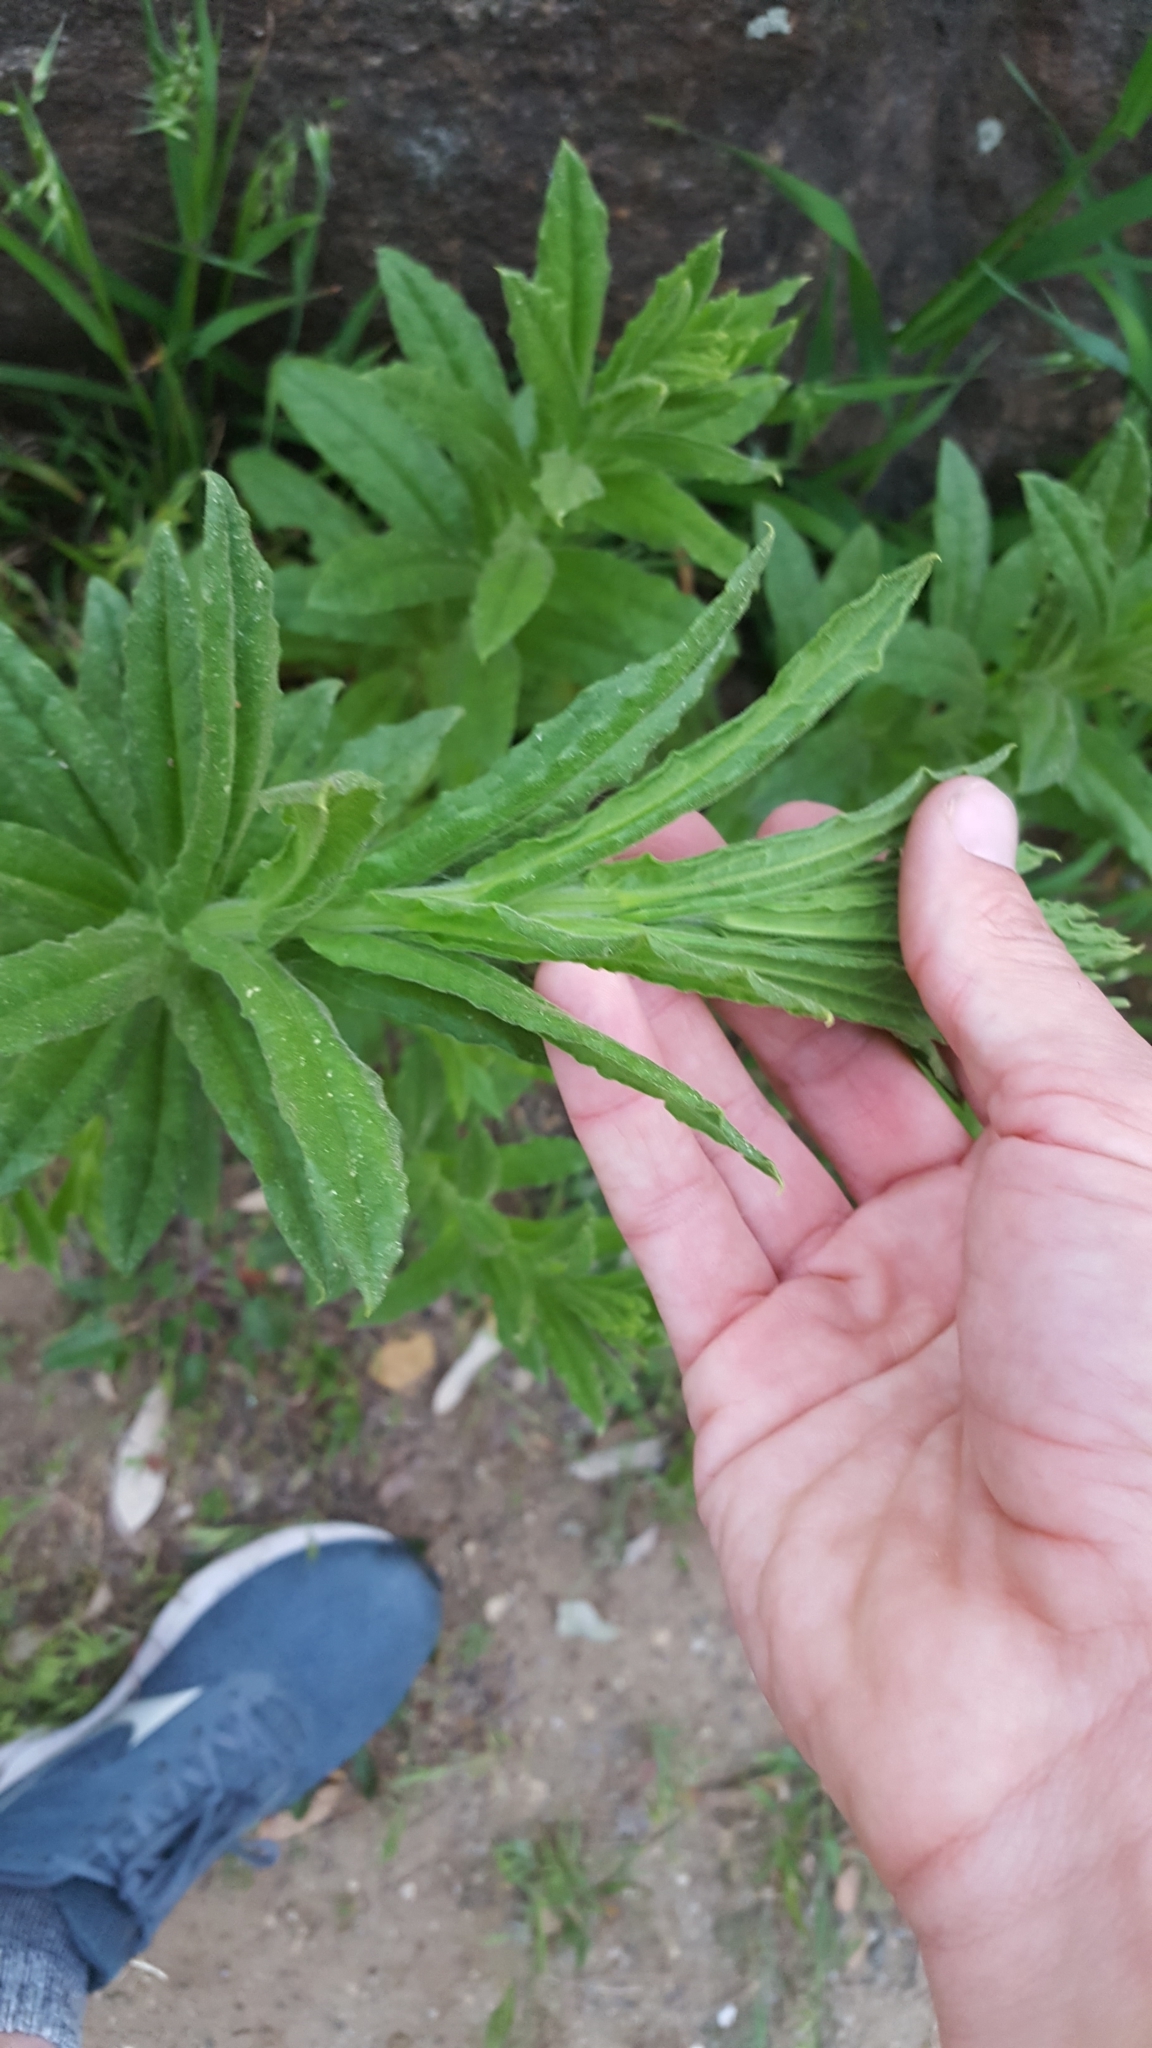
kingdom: Plantae
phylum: Tracheophyta
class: Magnoliopsida
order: Asterales
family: Asteraceae
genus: Pseudognaphalium
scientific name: Pseudognaphalium californicum
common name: California rabbit-tobacco
